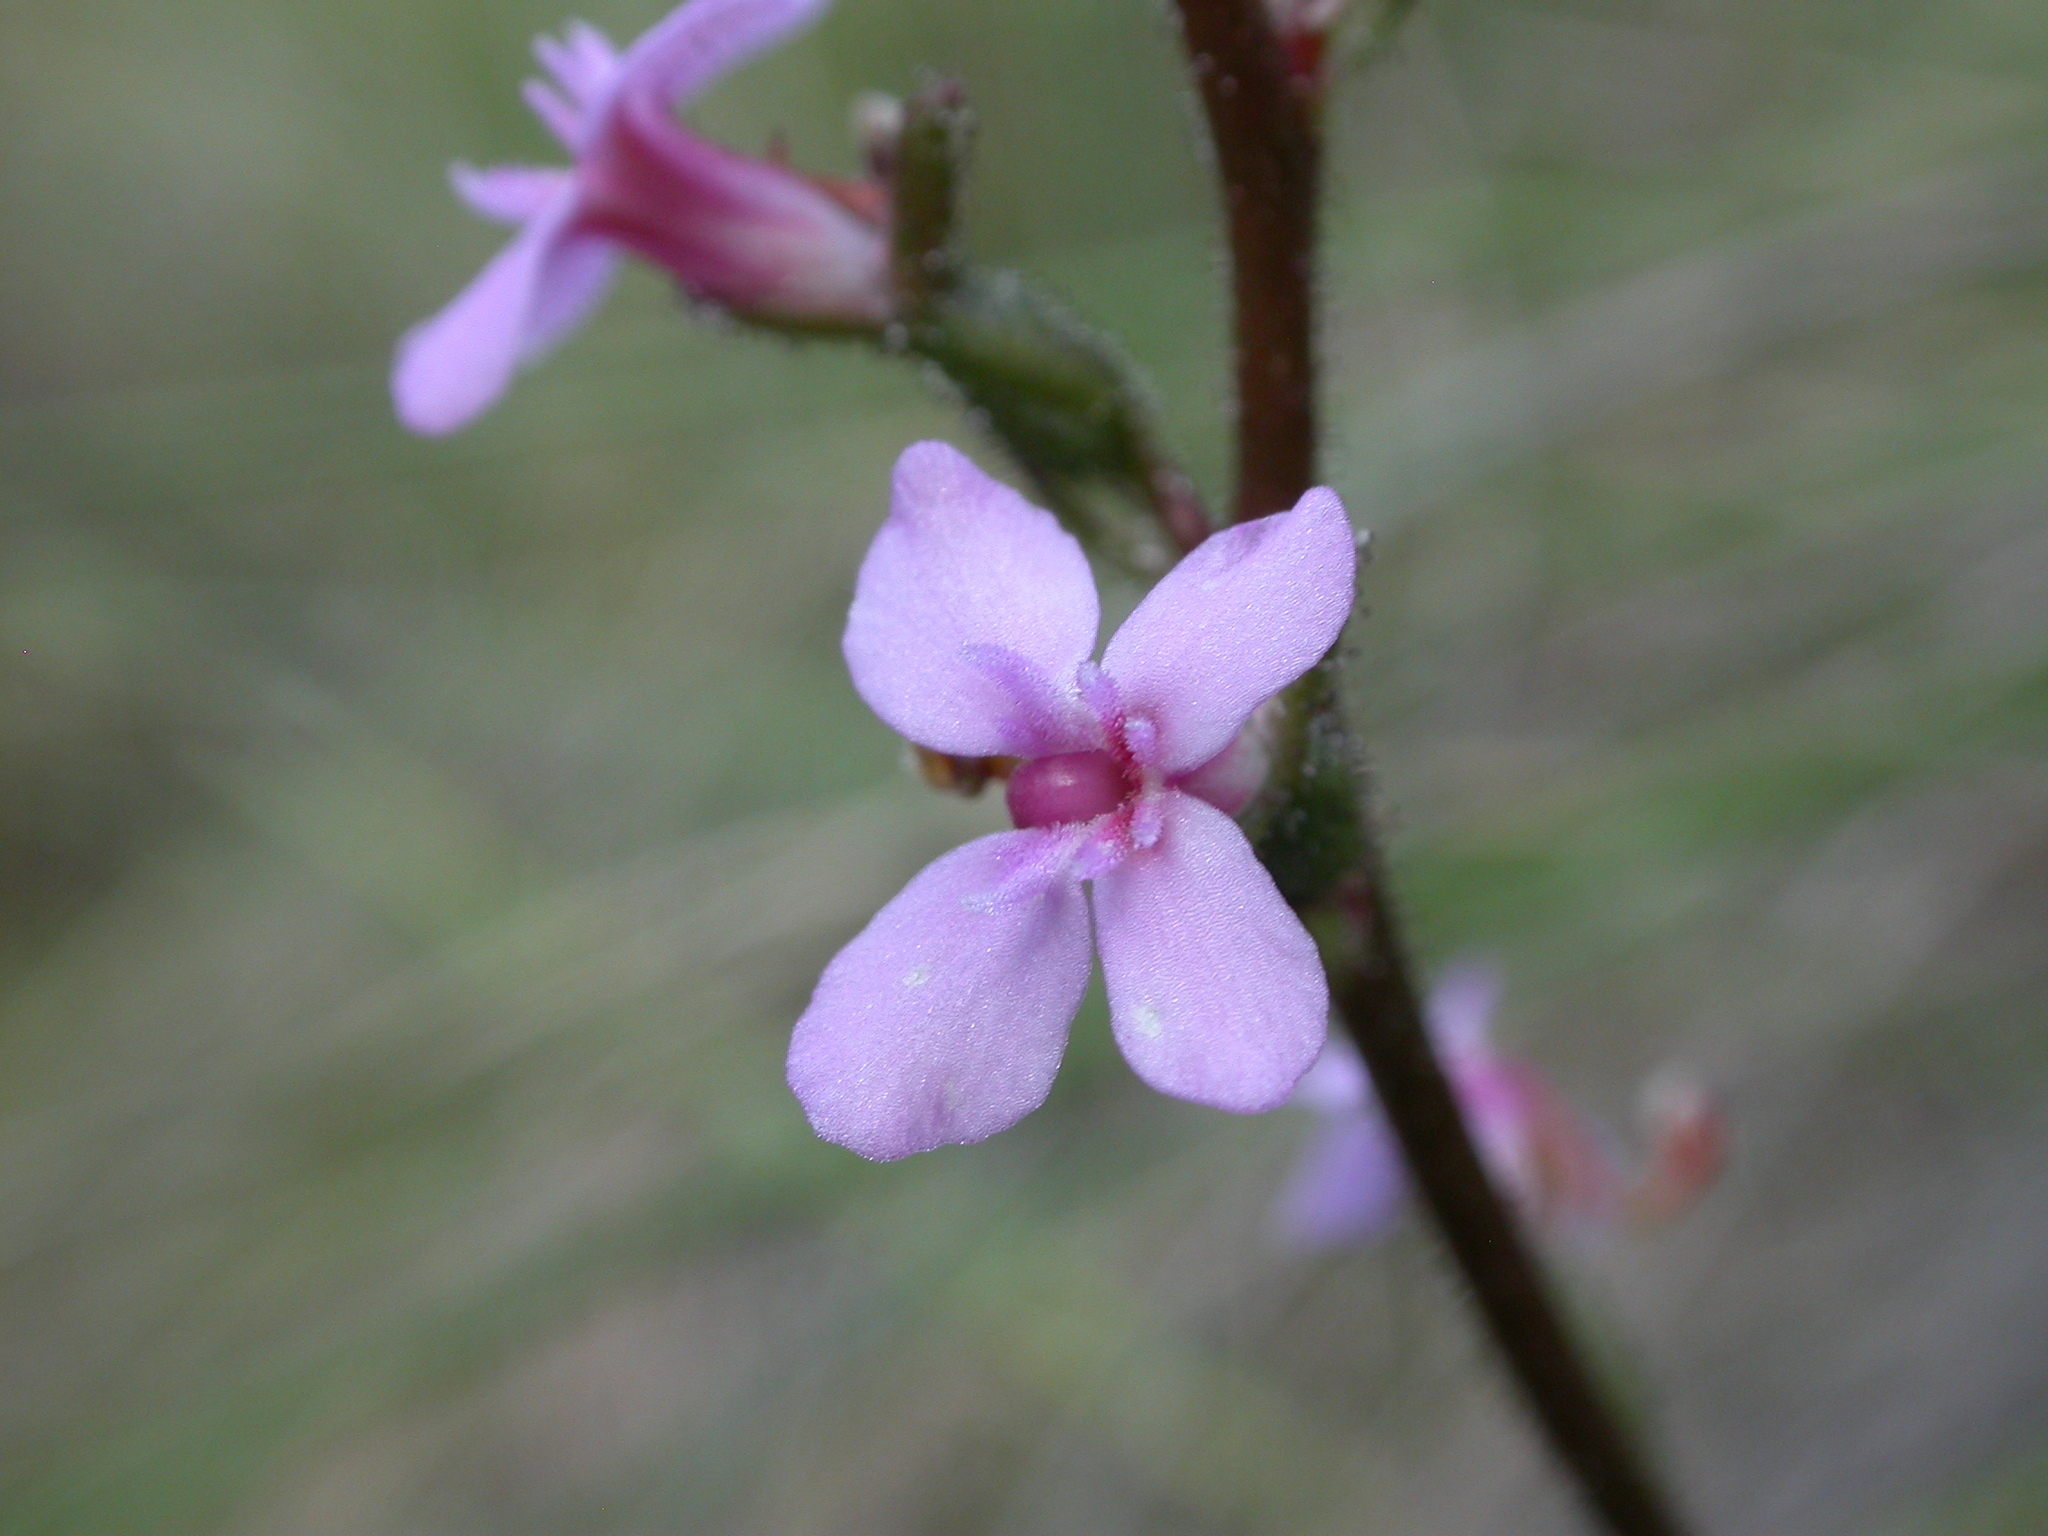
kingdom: Plantae
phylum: Tracheophyta
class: Magnoliopsida
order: Asterales
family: Stylidiaceae
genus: Stylidium
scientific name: Stylidium
